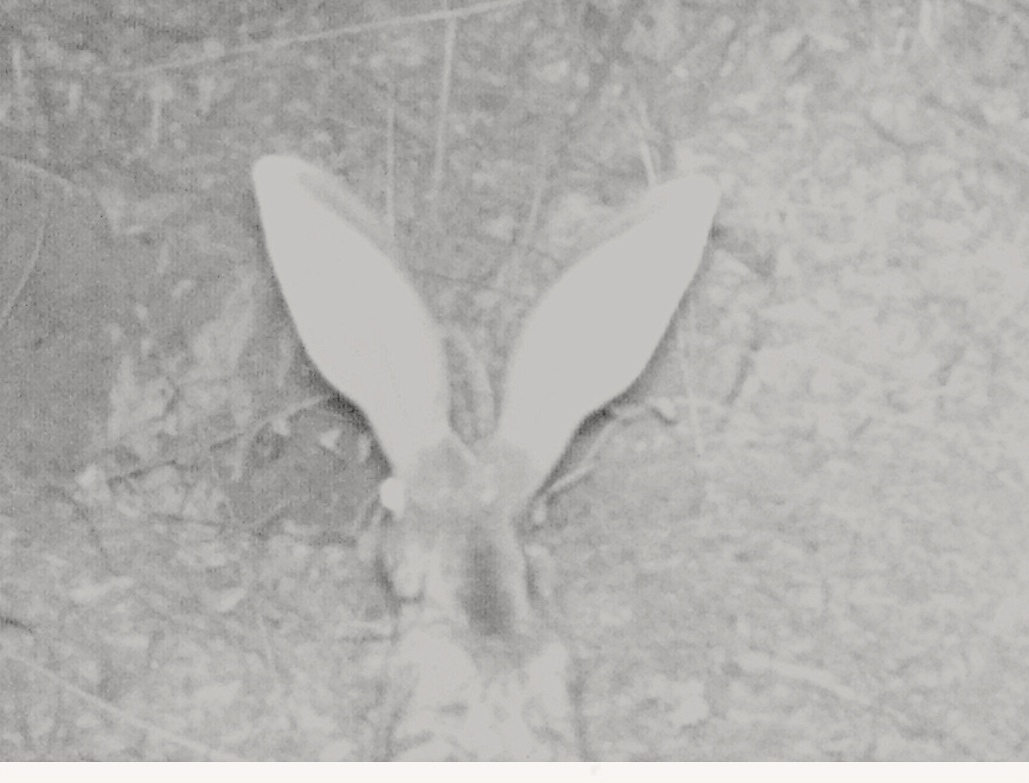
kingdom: Animalia
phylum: Chordata
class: Mammalia
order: Lagomorpha
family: Leporidae
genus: Lepus
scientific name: Lepus alleni
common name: Antelope jackrabbit
